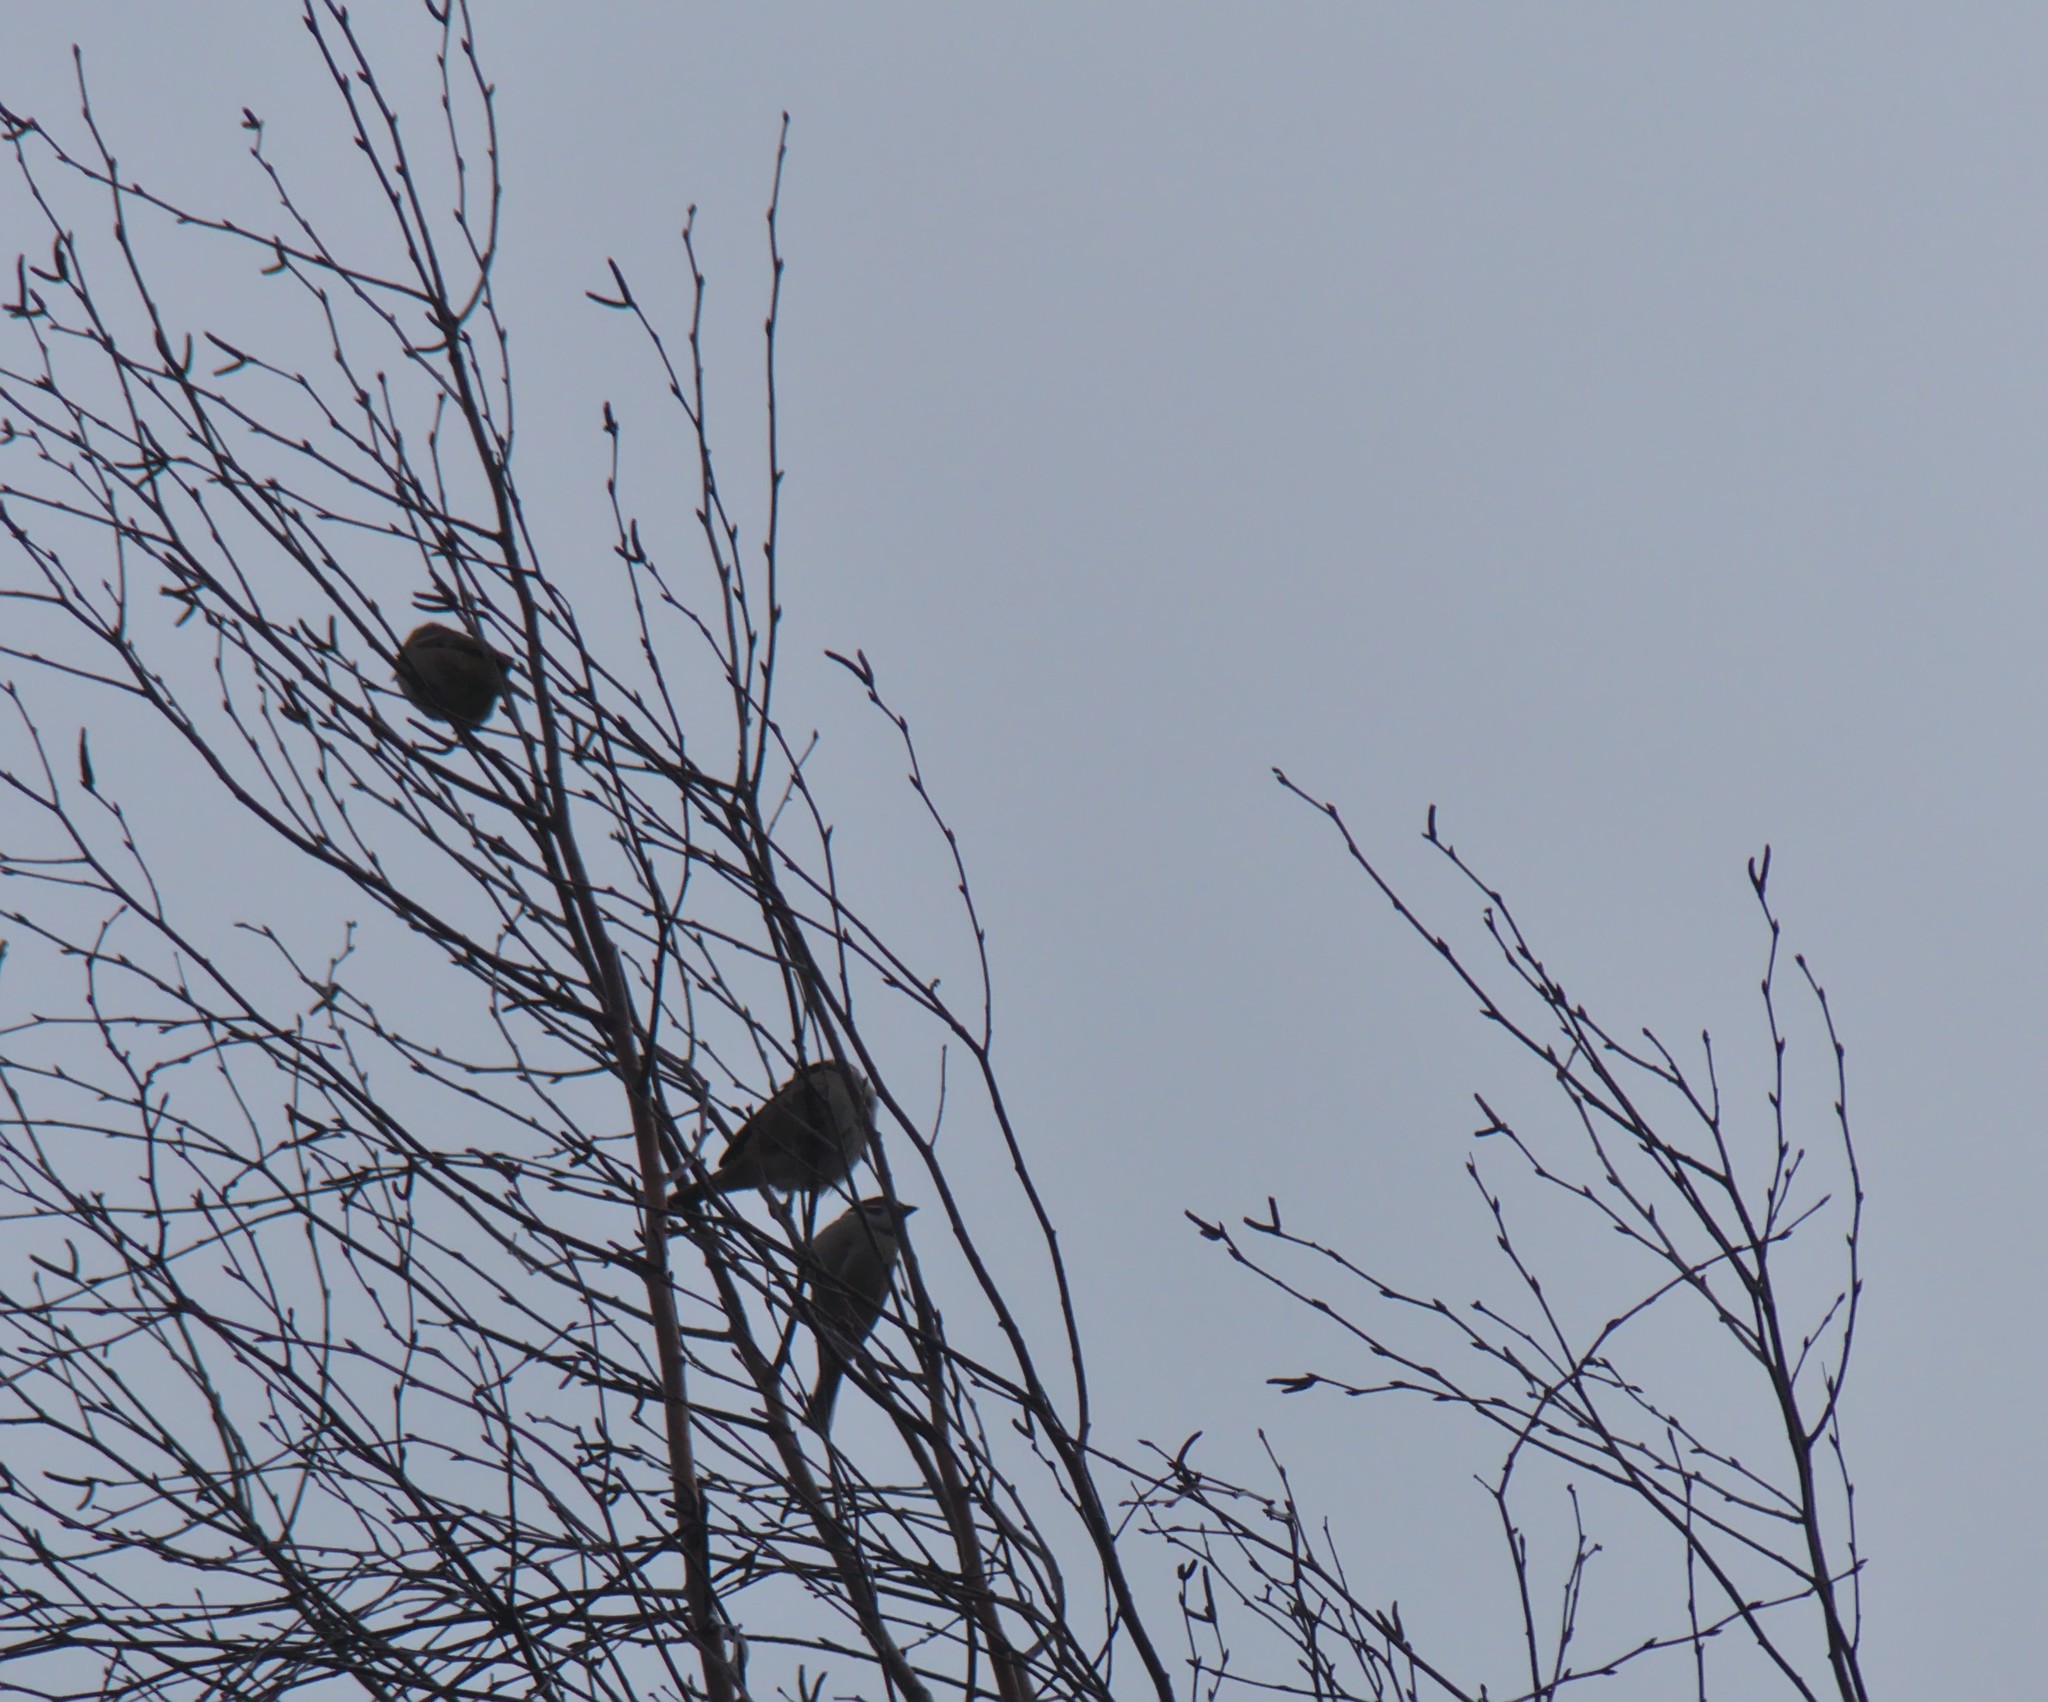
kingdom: Animalia
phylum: Chordata
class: Aves
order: Passeriformes
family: Passeridae
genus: Passer
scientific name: Passer montanus
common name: Eurasian tree sparrow
